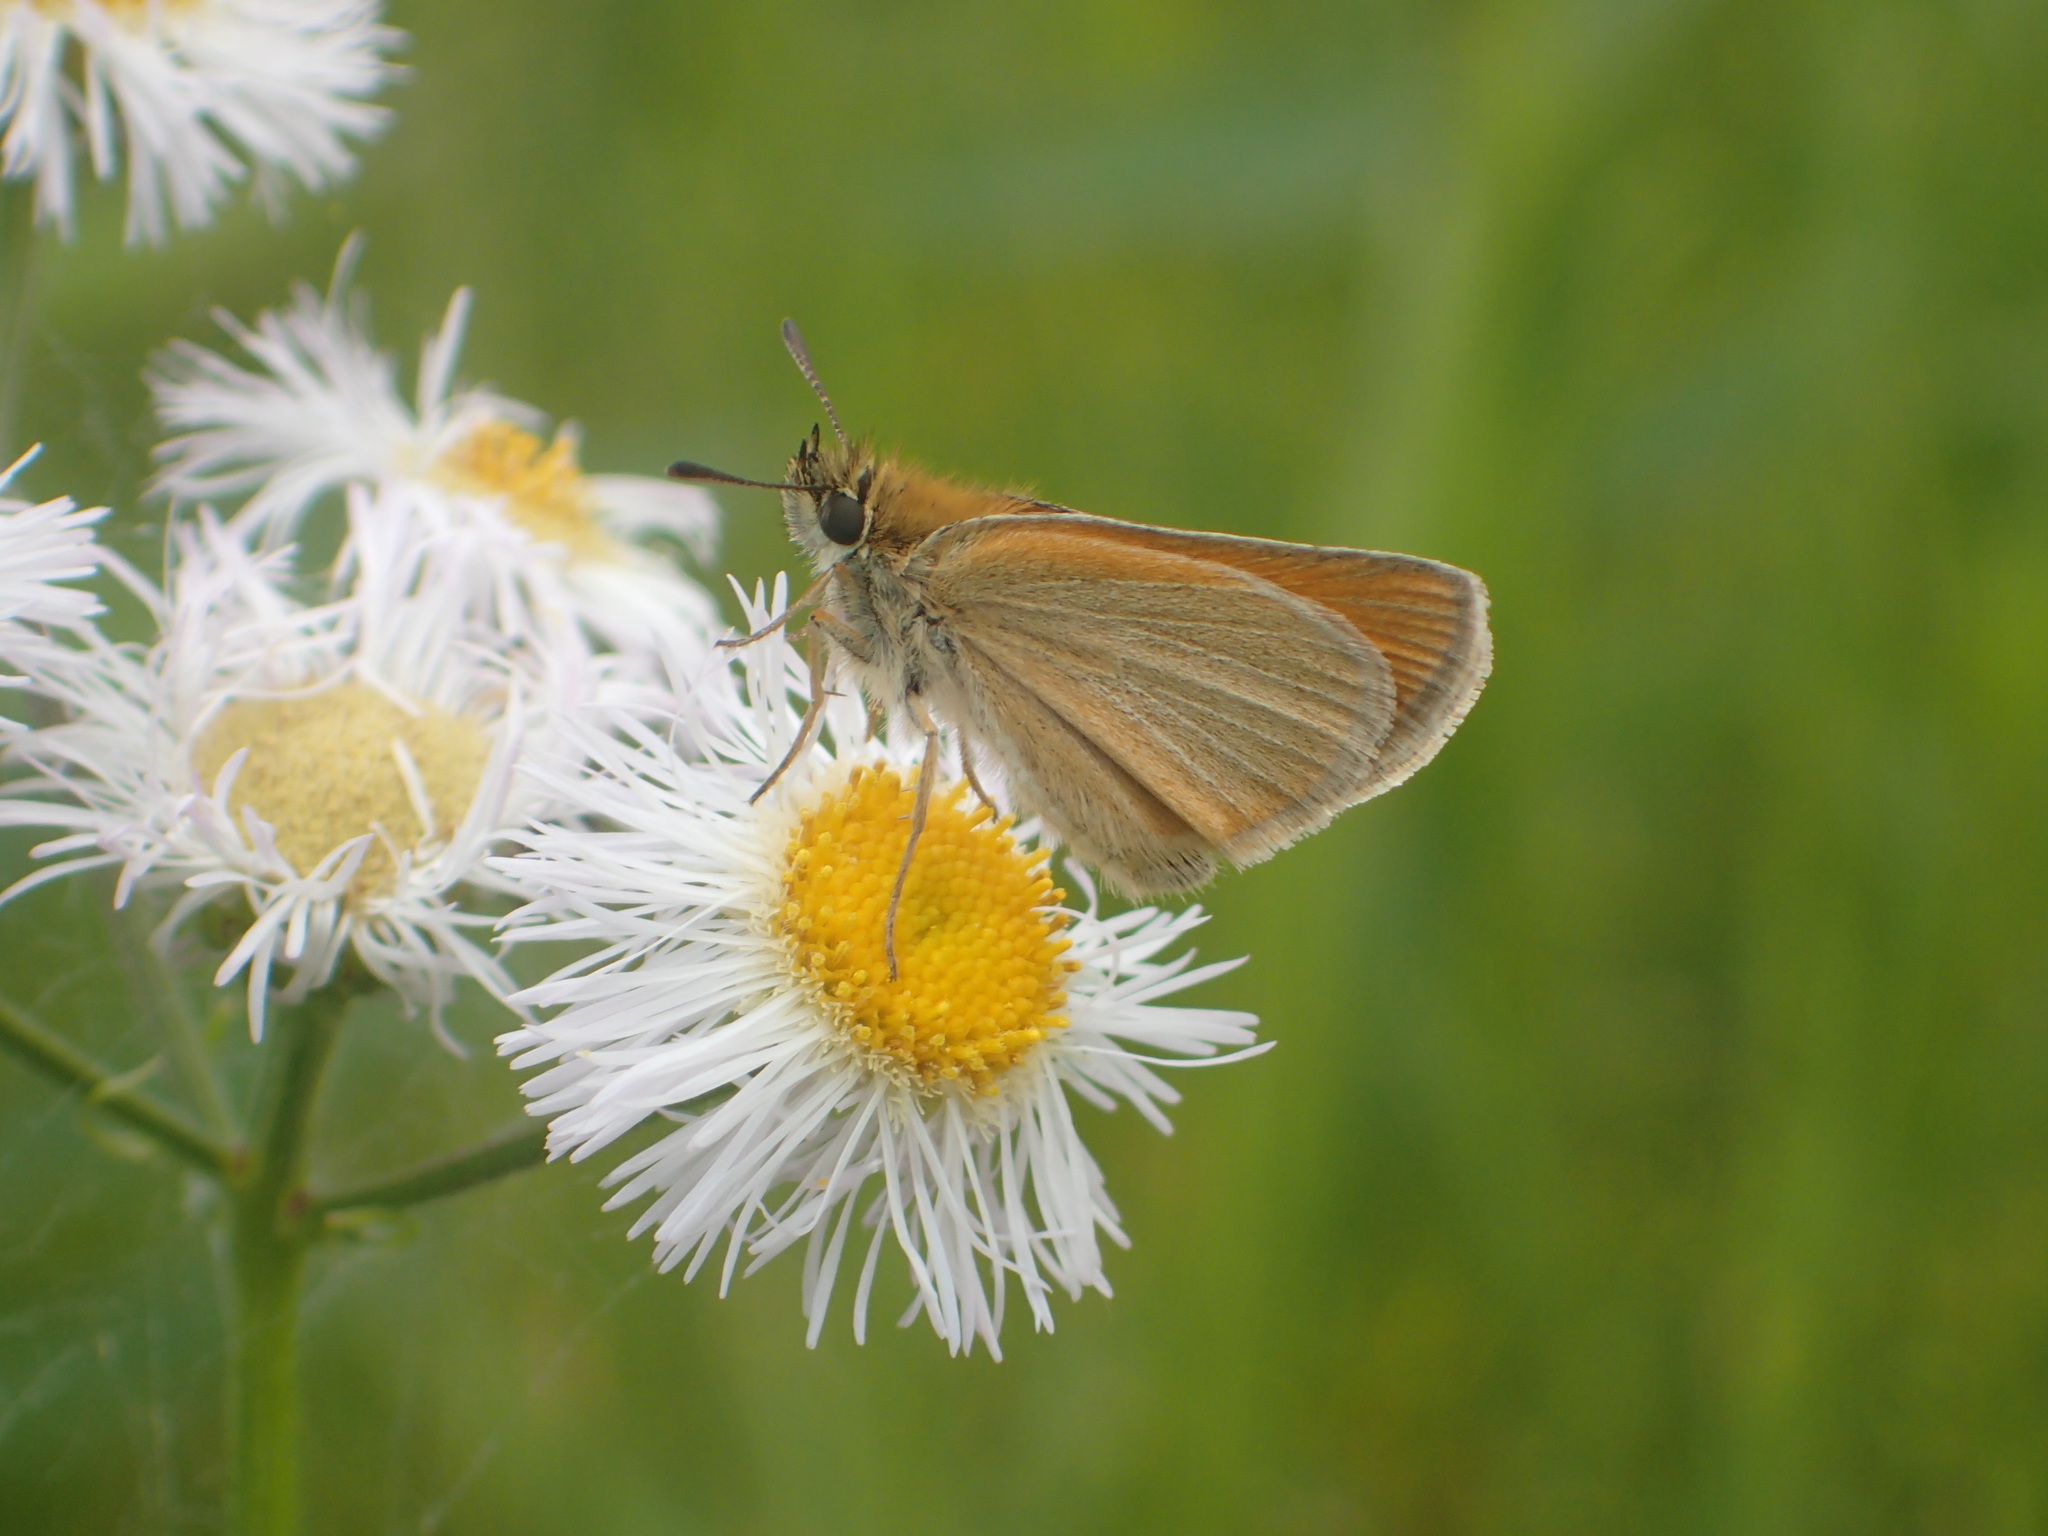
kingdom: Animalia
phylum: Arthropoda
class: Insecta
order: Lepidoptera
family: Hesperiidae
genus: Thymelicus
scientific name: Thymelicus lineola
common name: Essex skipper
